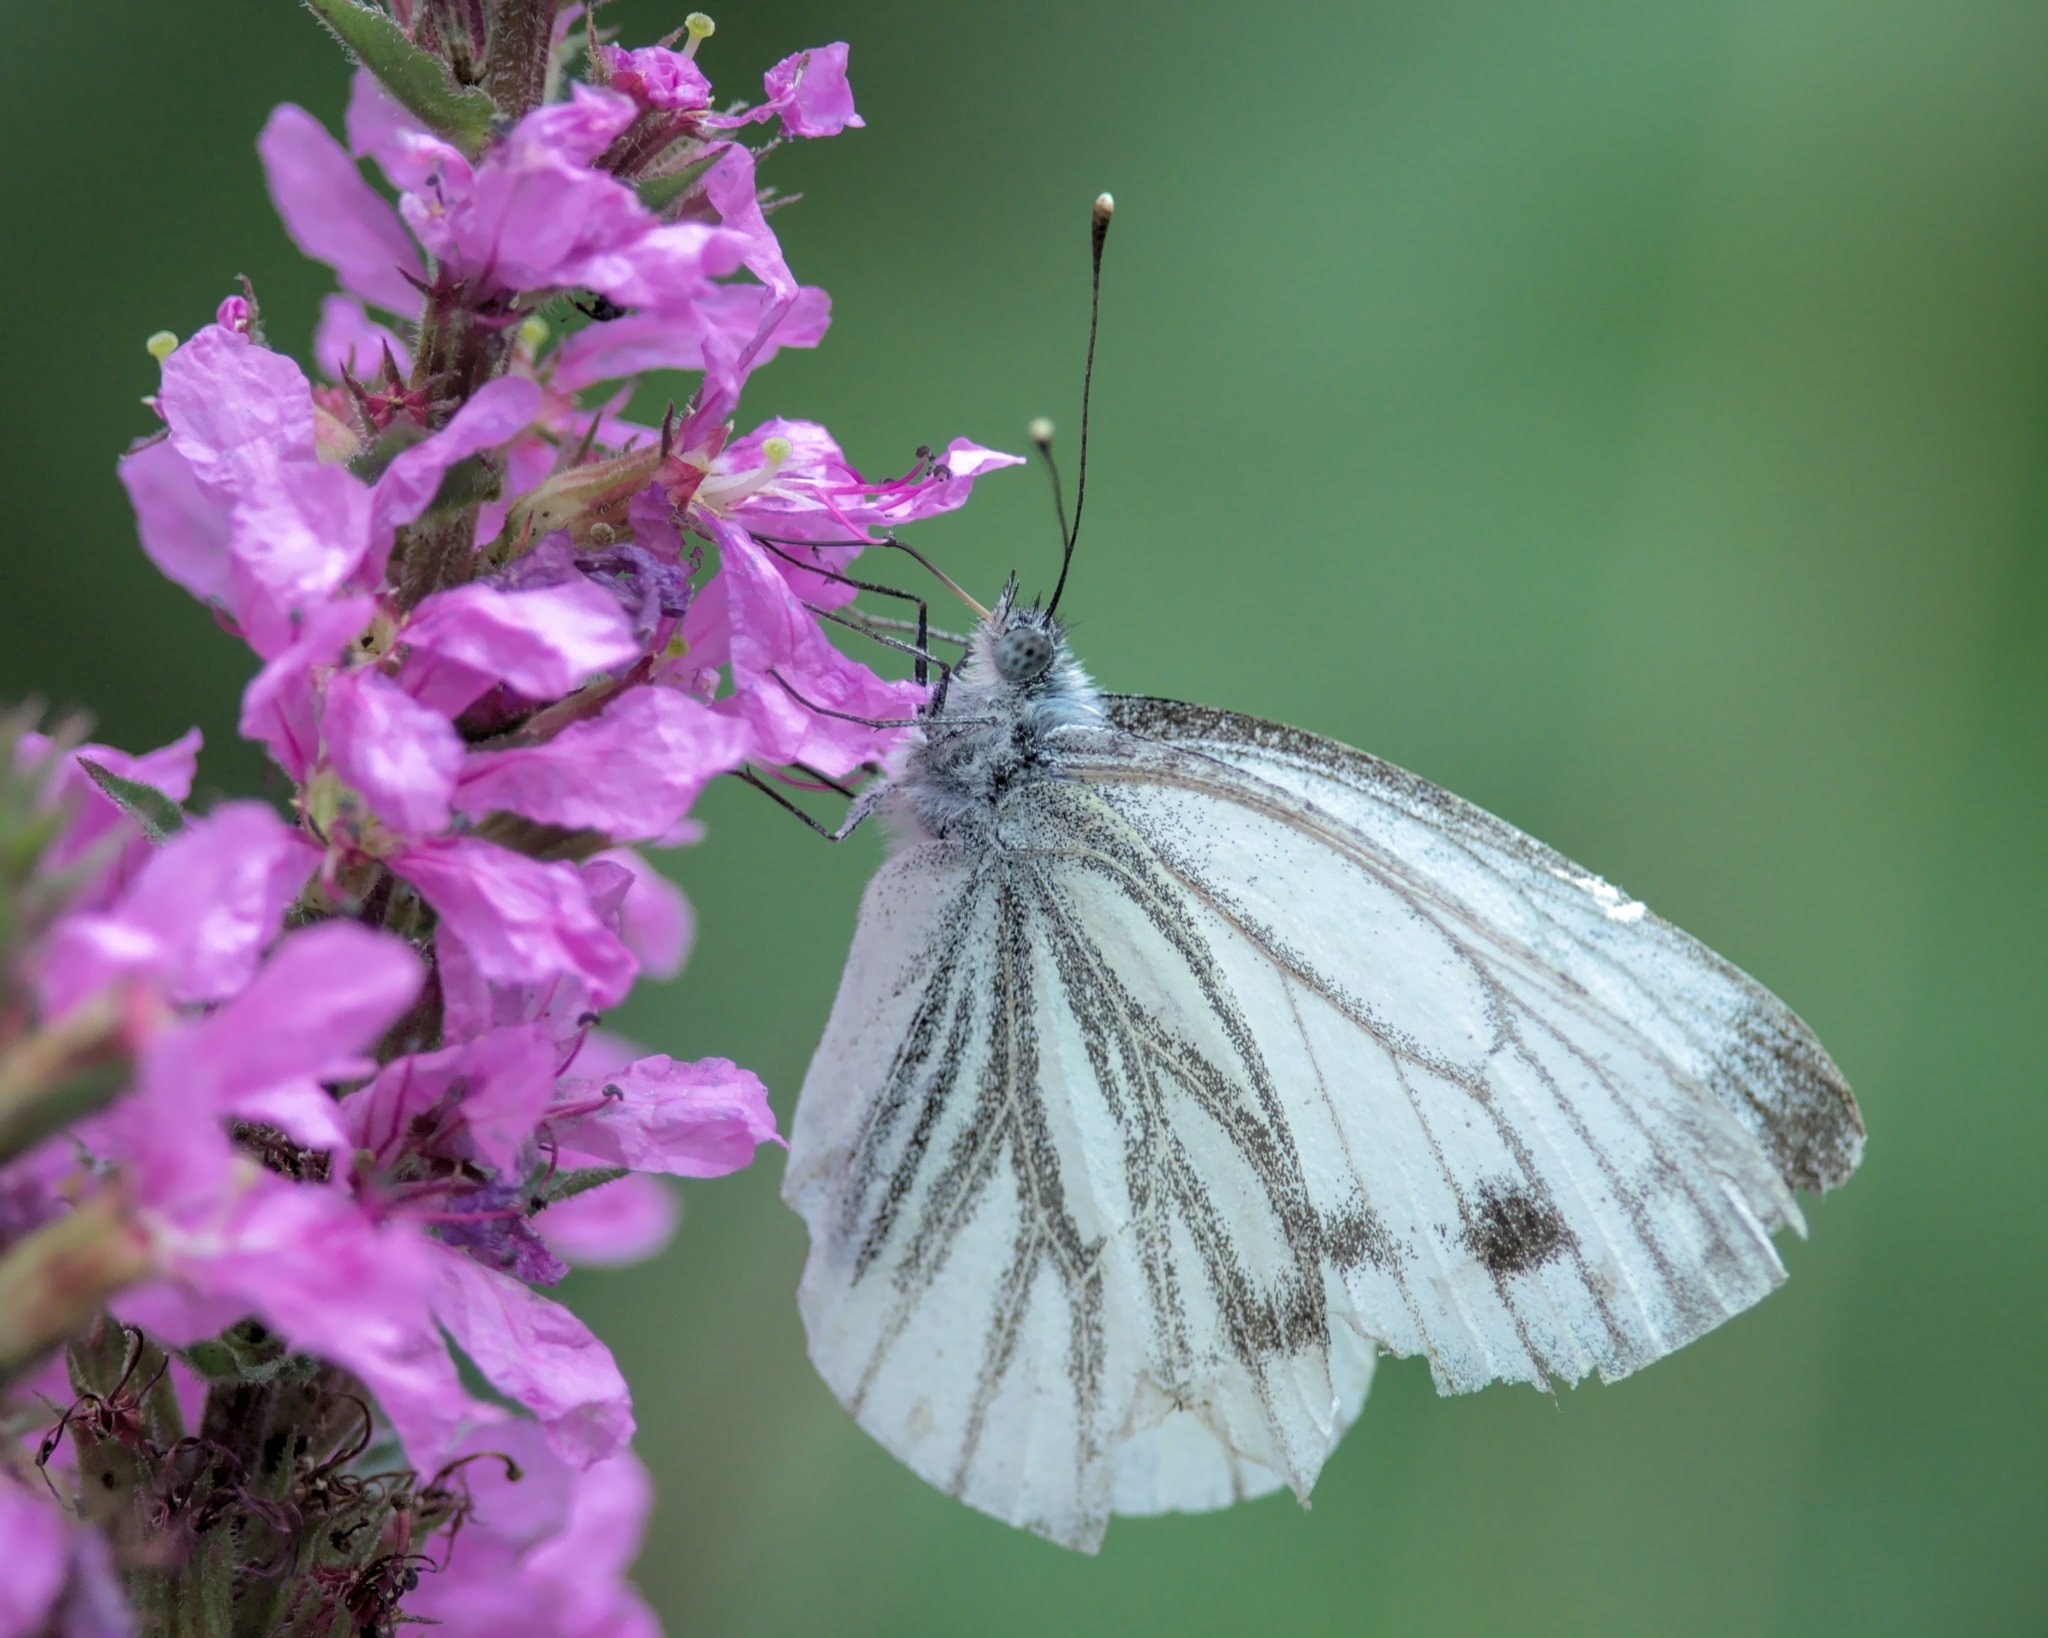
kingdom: Animalia
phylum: Arthropoda
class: Insecta
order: Lepidoptera
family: Pieridae
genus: Pieris
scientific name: Pieris napi
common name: Green-veined white
